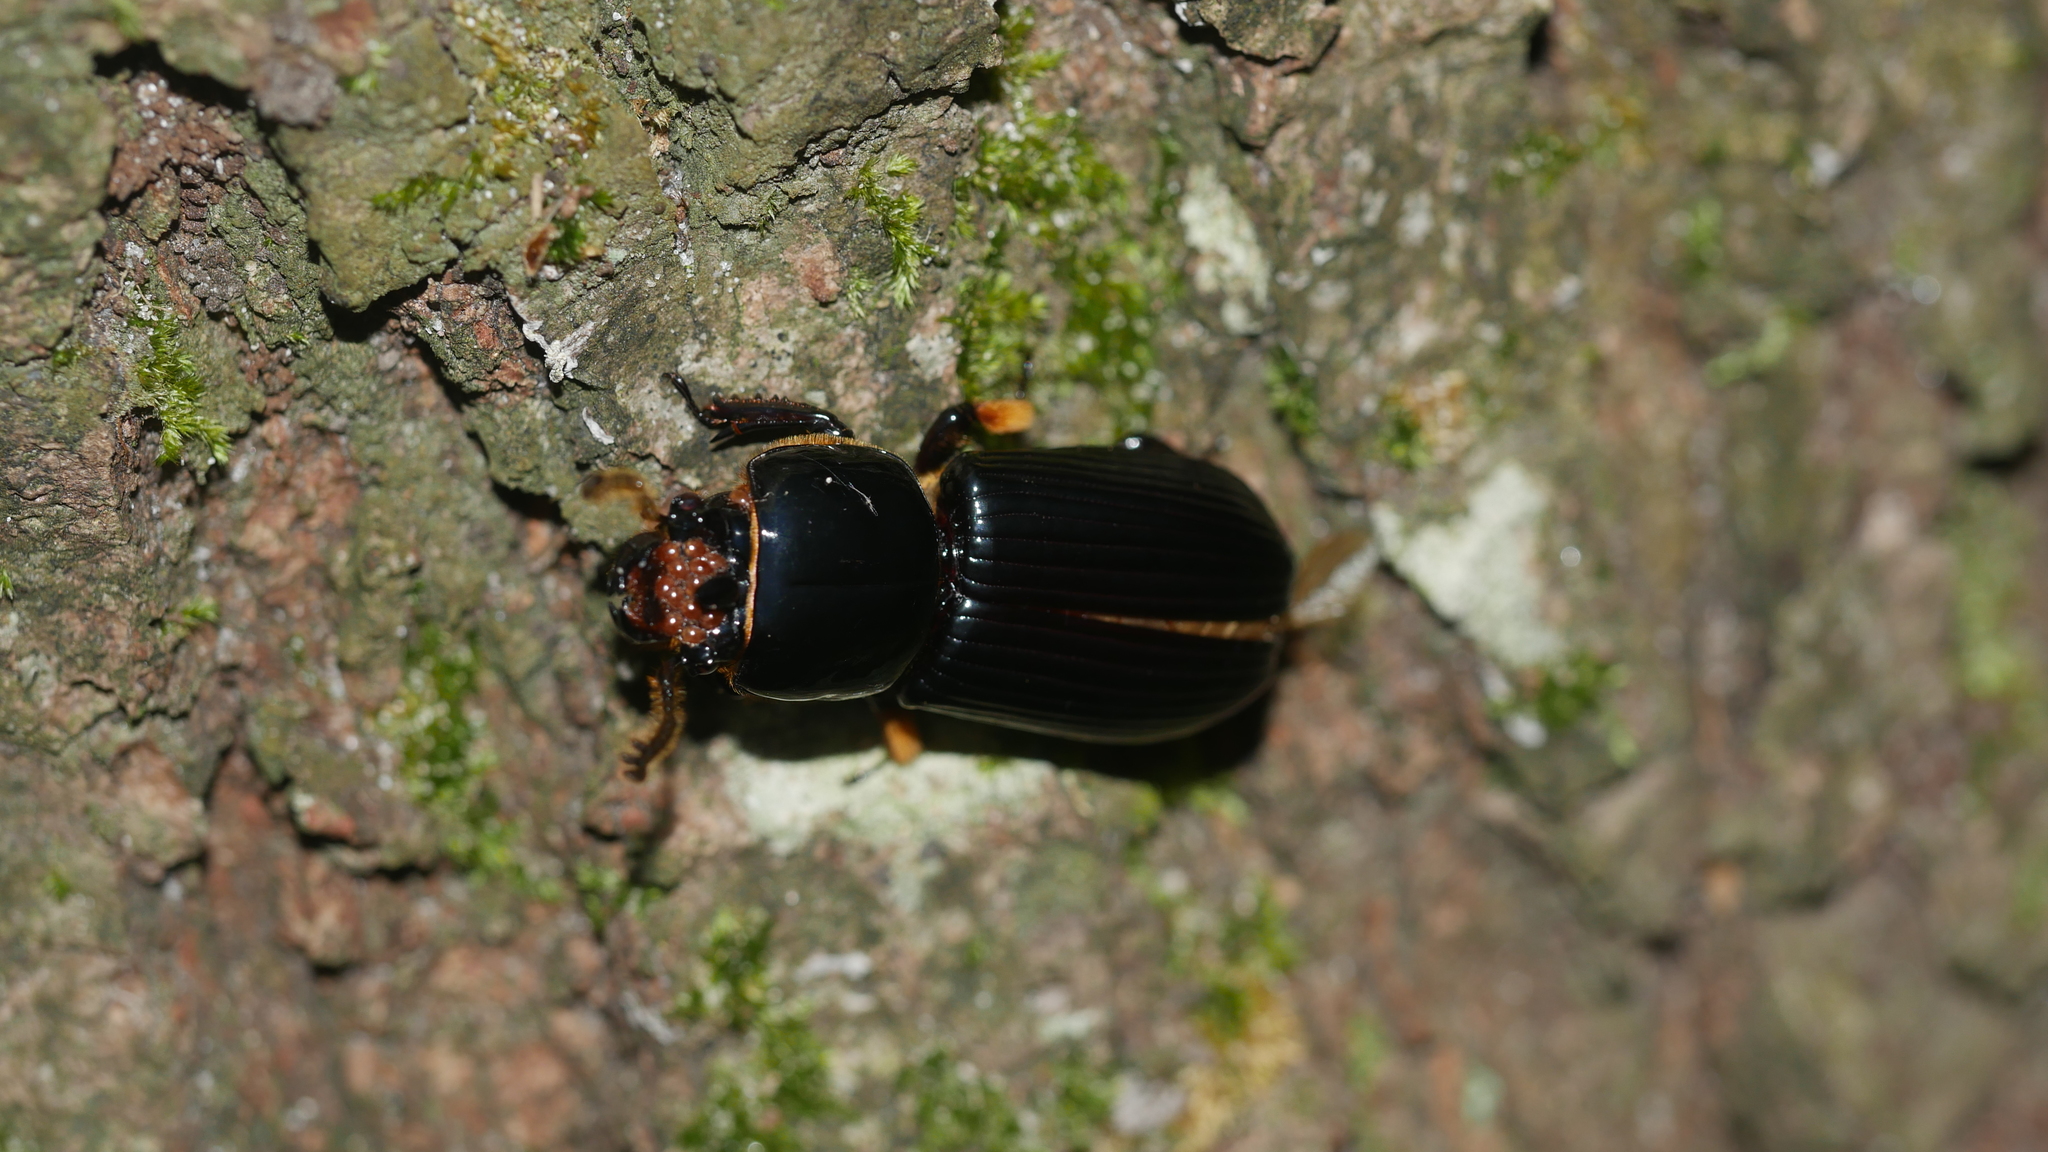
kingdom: Animalia
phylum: Arthropoda
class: Insecta
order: Coleoptera
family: Passalidae
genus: Odontotaenius
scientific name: Odontotaenius disjunctus
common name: Patent leather beetle
